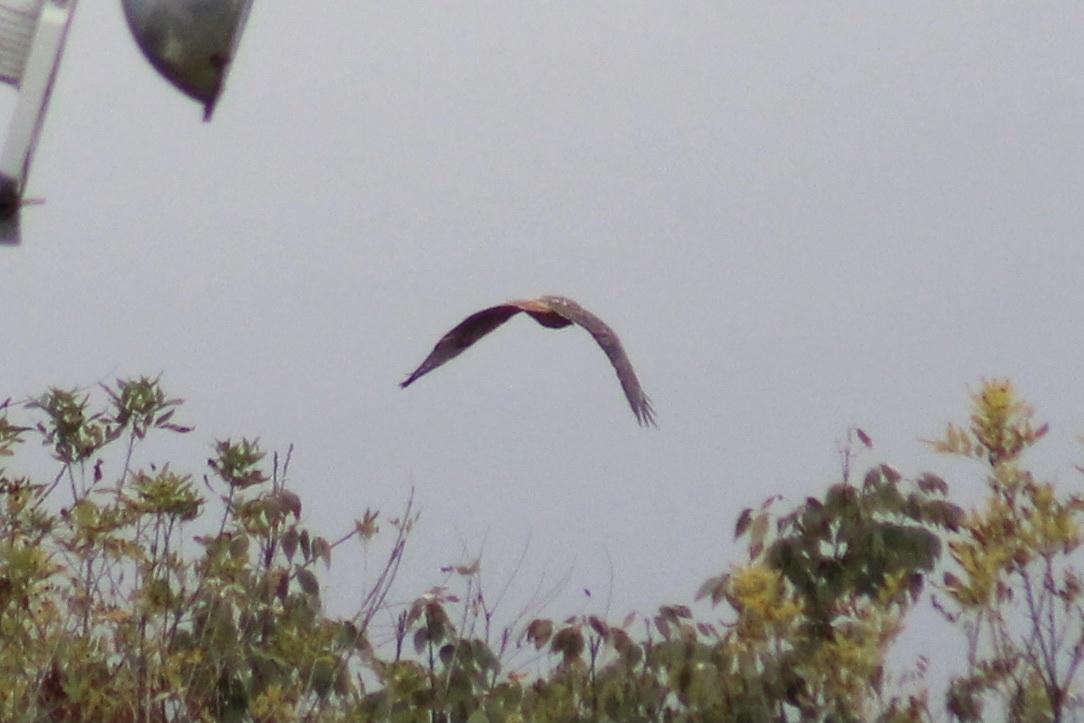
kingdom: Animalia
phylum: Chordata
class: Aves
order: Accipitriformes
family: Accipitridae
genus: Buteo
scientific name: Buteo jamaicensis
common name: Red-tailed hawk
